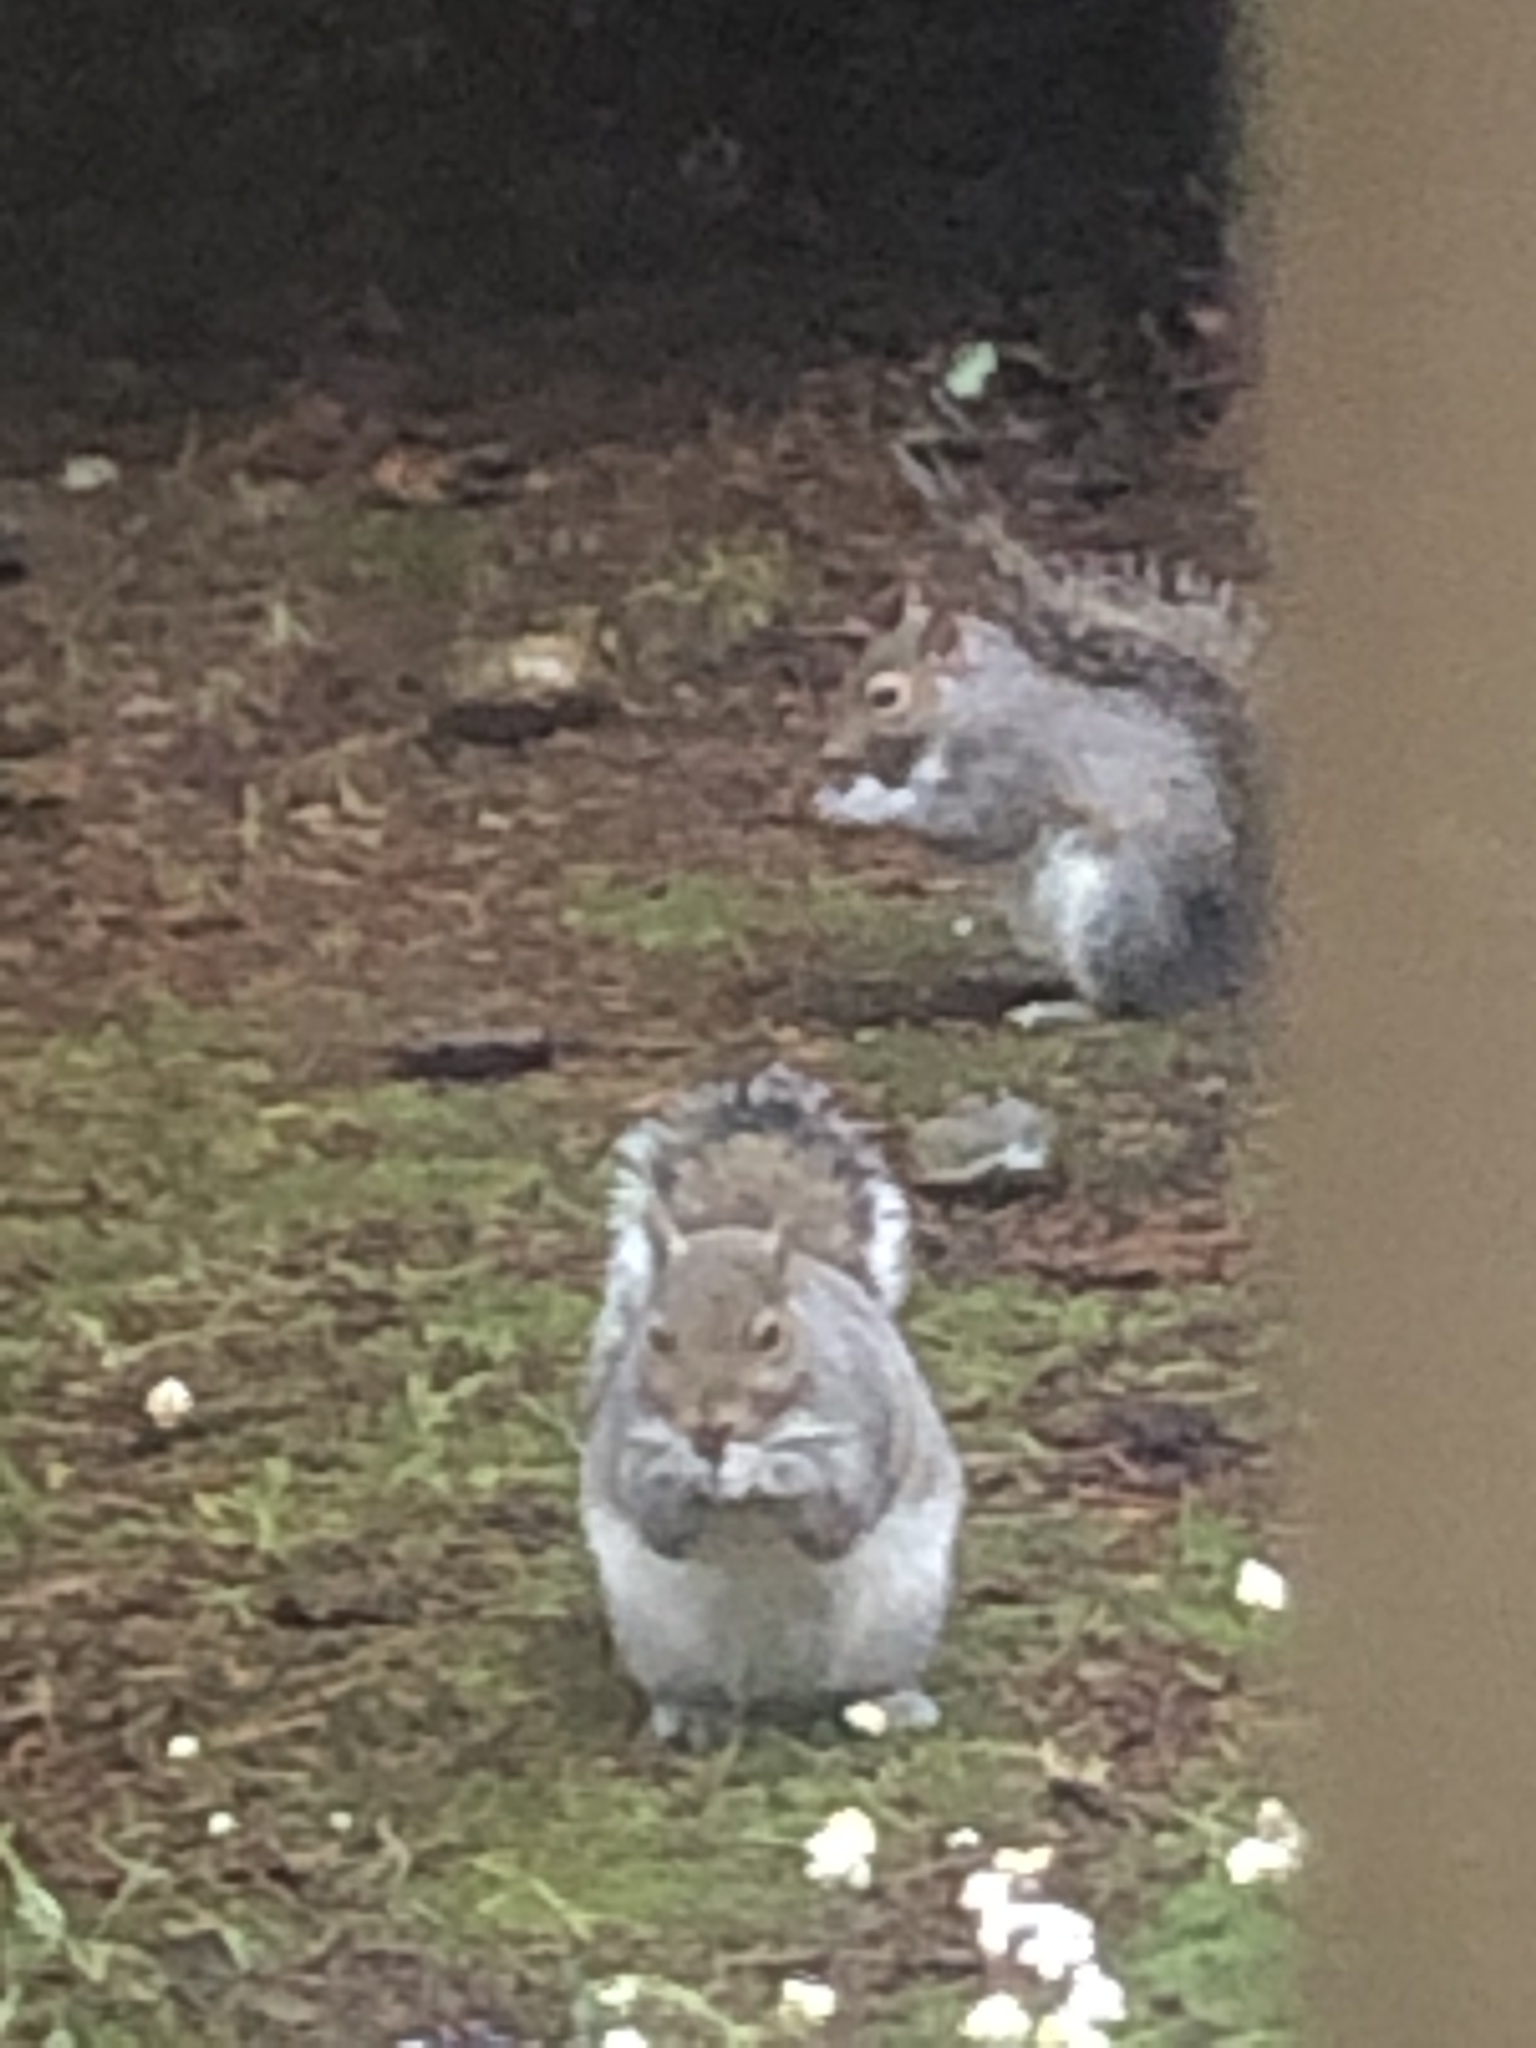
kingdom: Animalia
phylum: Chordata
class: Mammalia
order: Rodentia
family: Sciuridae
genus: Sciurus
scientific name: Sciurus carolinensis
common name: Eastern gray squirrel
